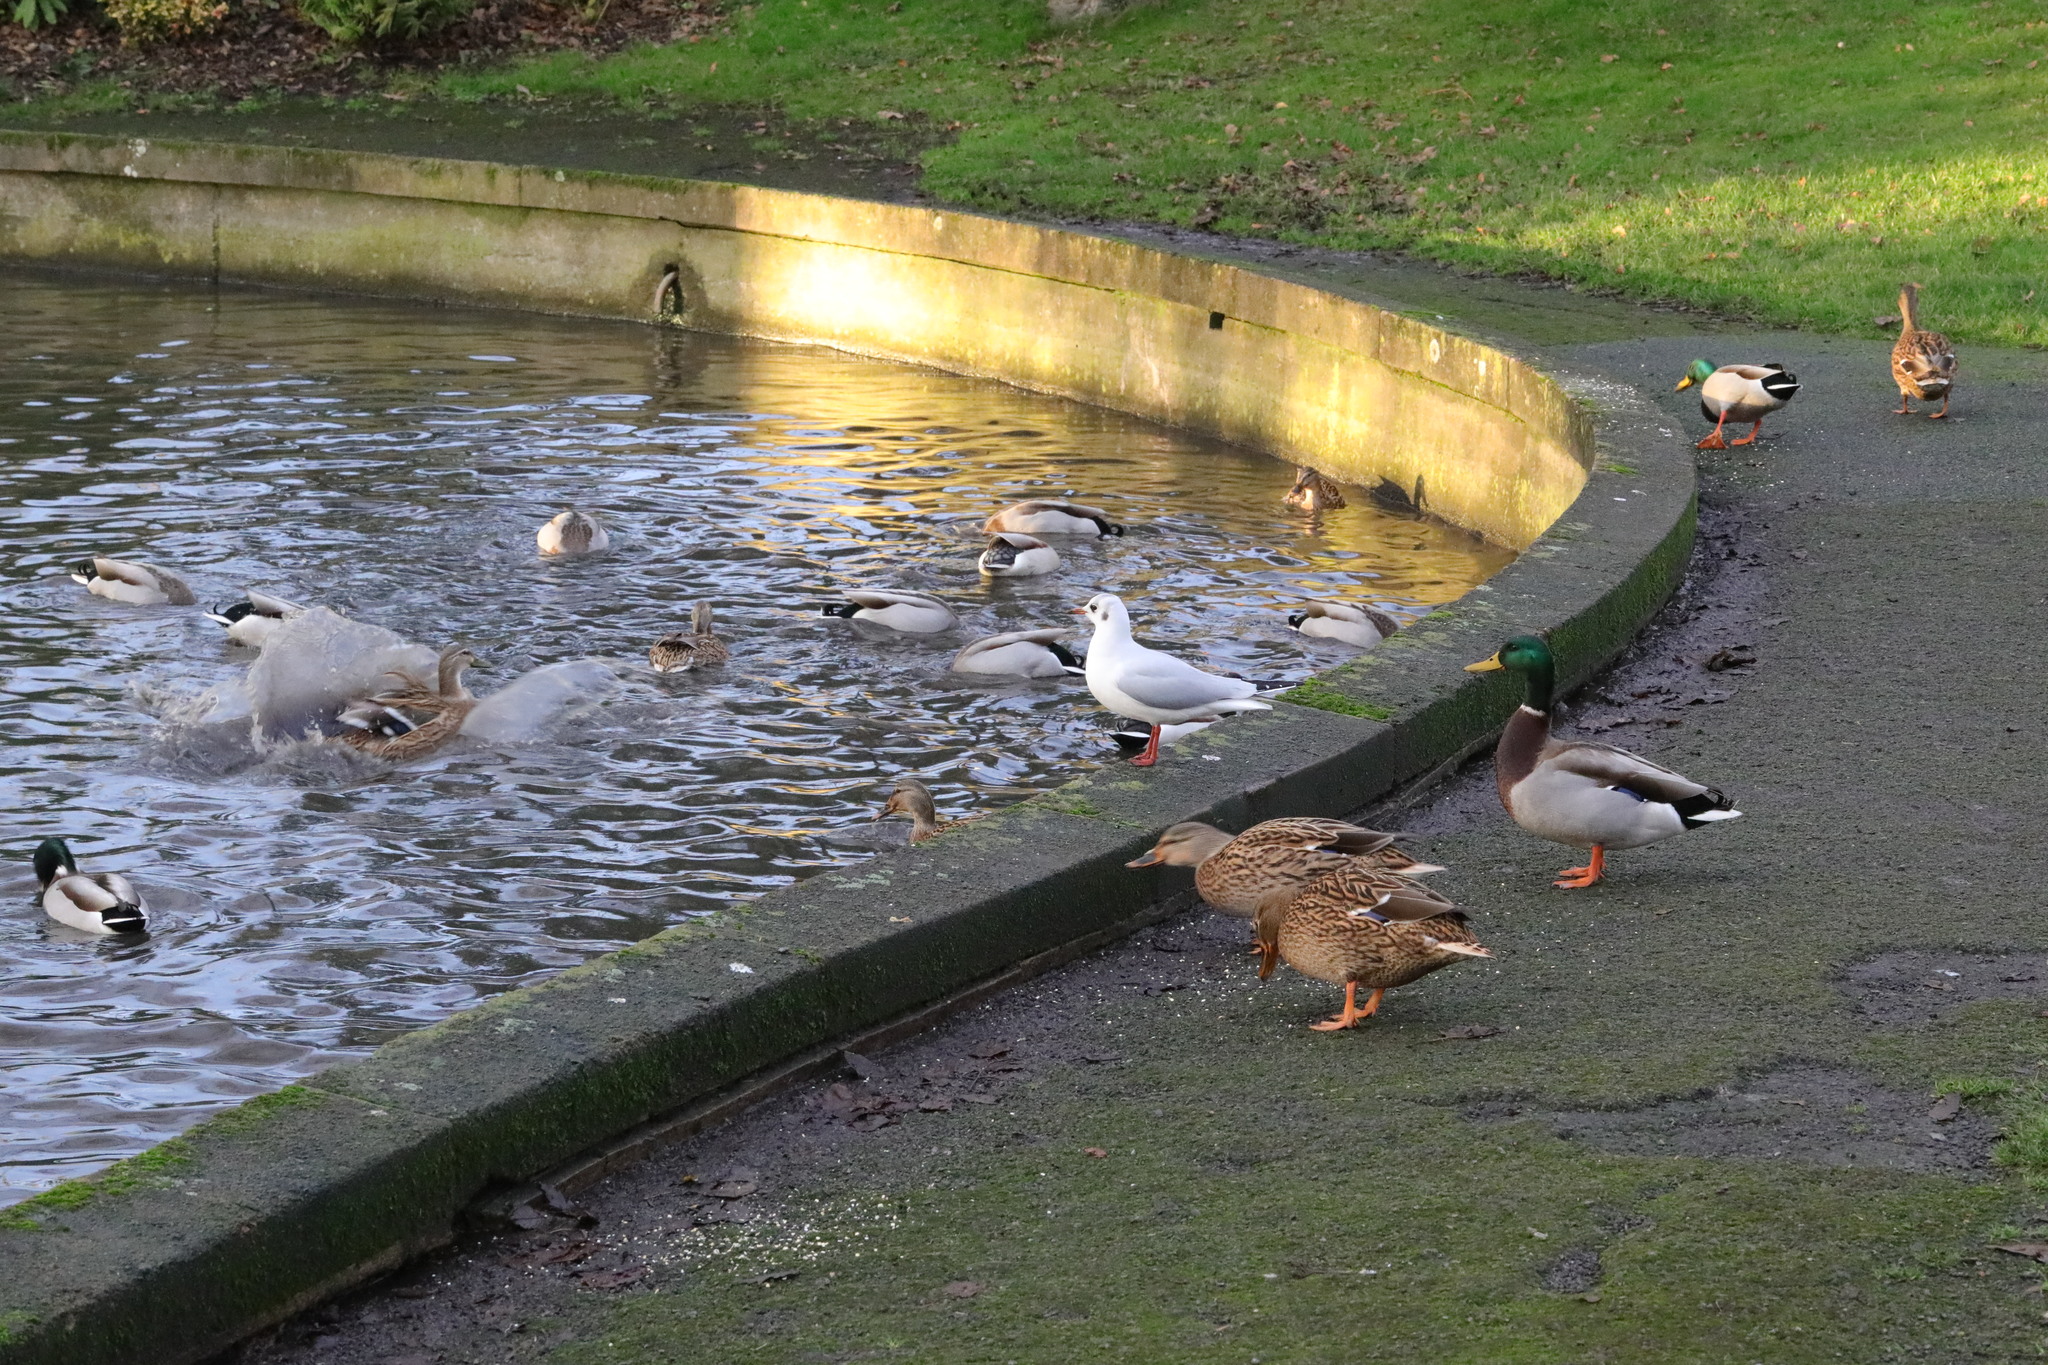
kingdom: Animalia
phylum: Chordata
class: Aves
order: Charadriiformes
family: Laridae
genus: Chroicocephalus
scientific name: Chroicocephalus ridibundus
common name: Black-headed gull
